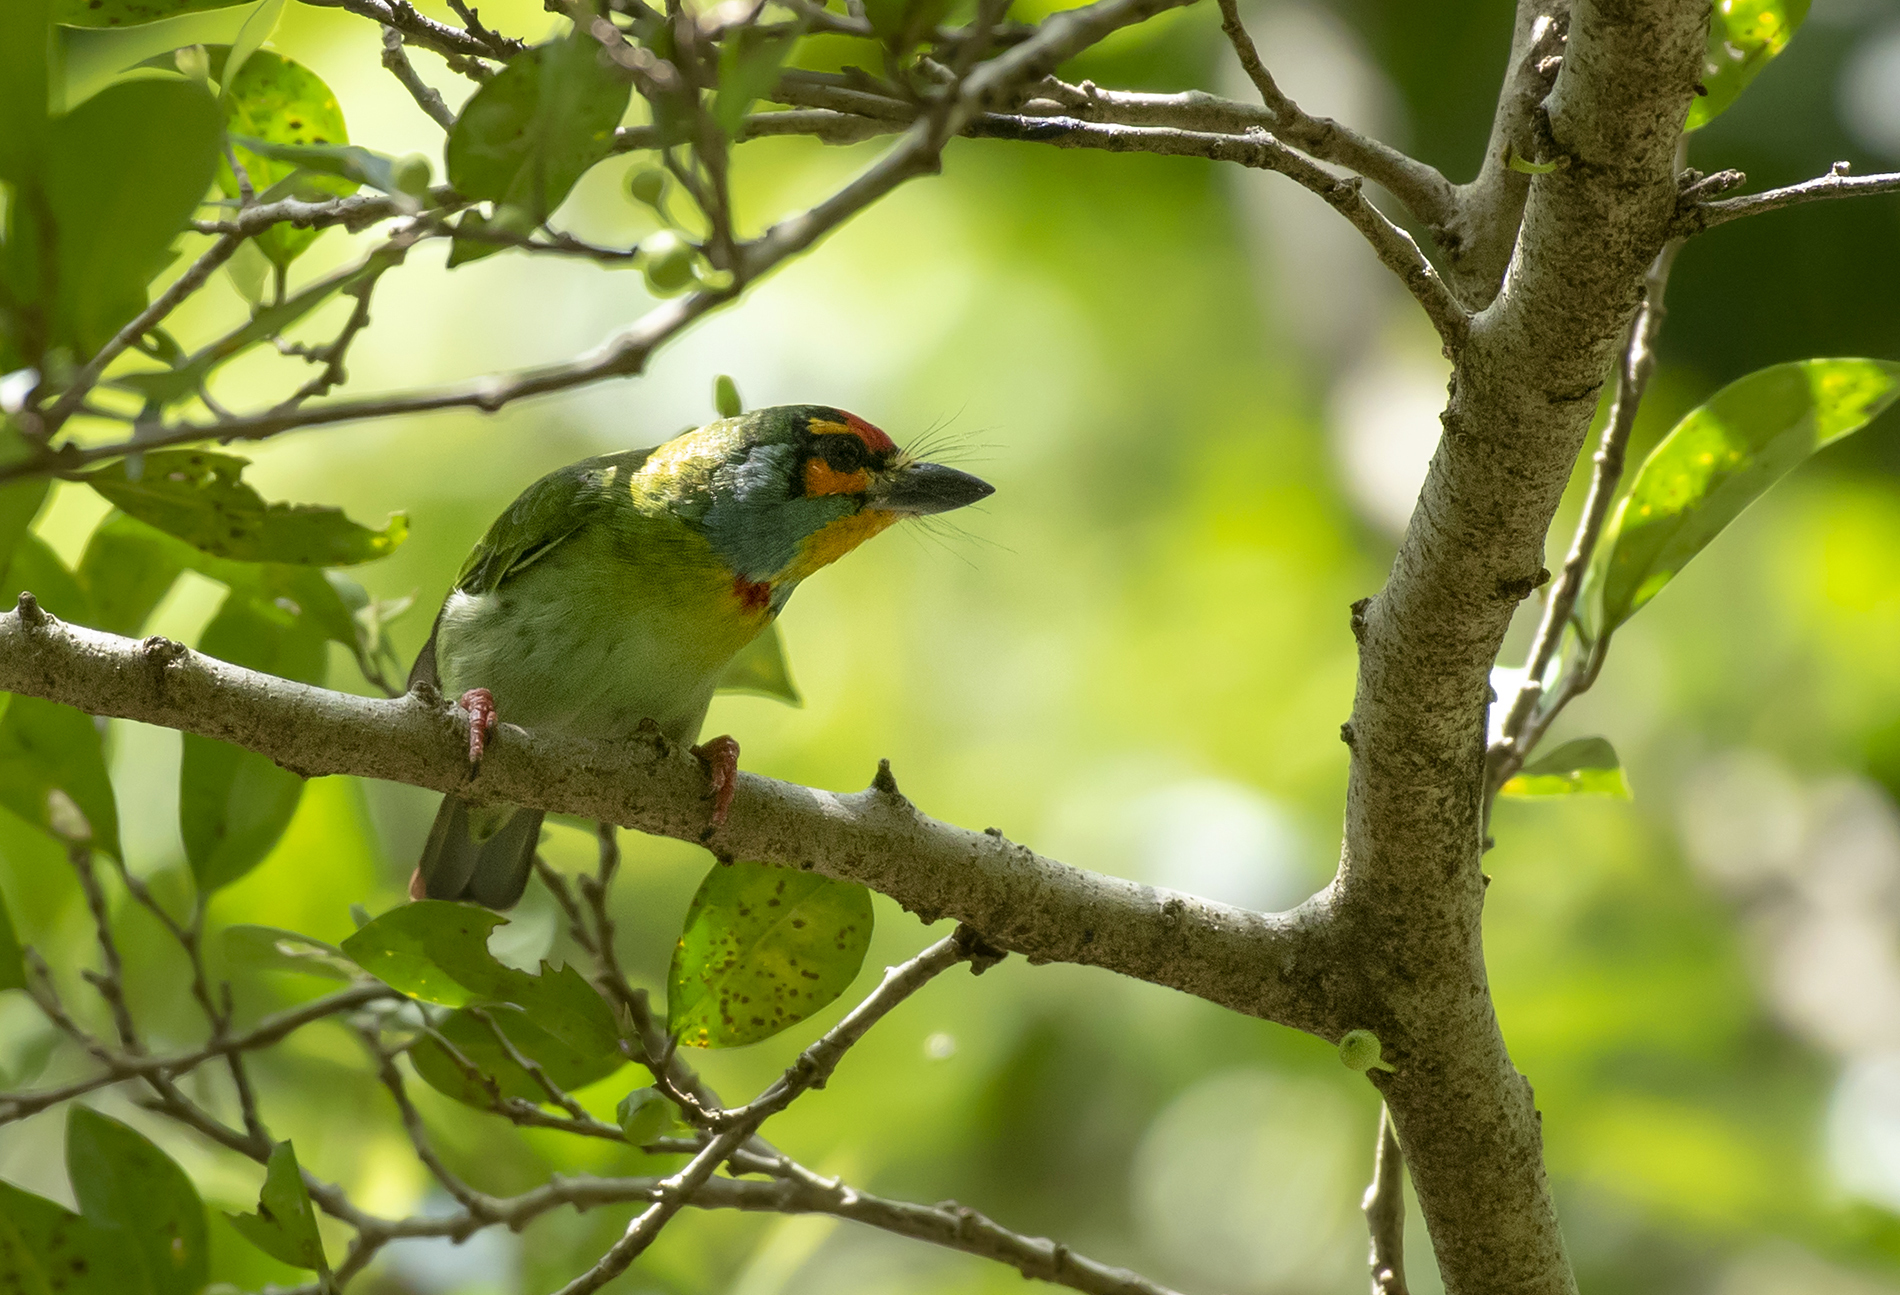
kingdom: Animalia
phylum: Chordata
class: Aves
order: Piciformes
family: Megalaimidae
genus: Psilopogon
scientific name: Psilopogon rubricapillus
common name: Crimson-fronted barbet
